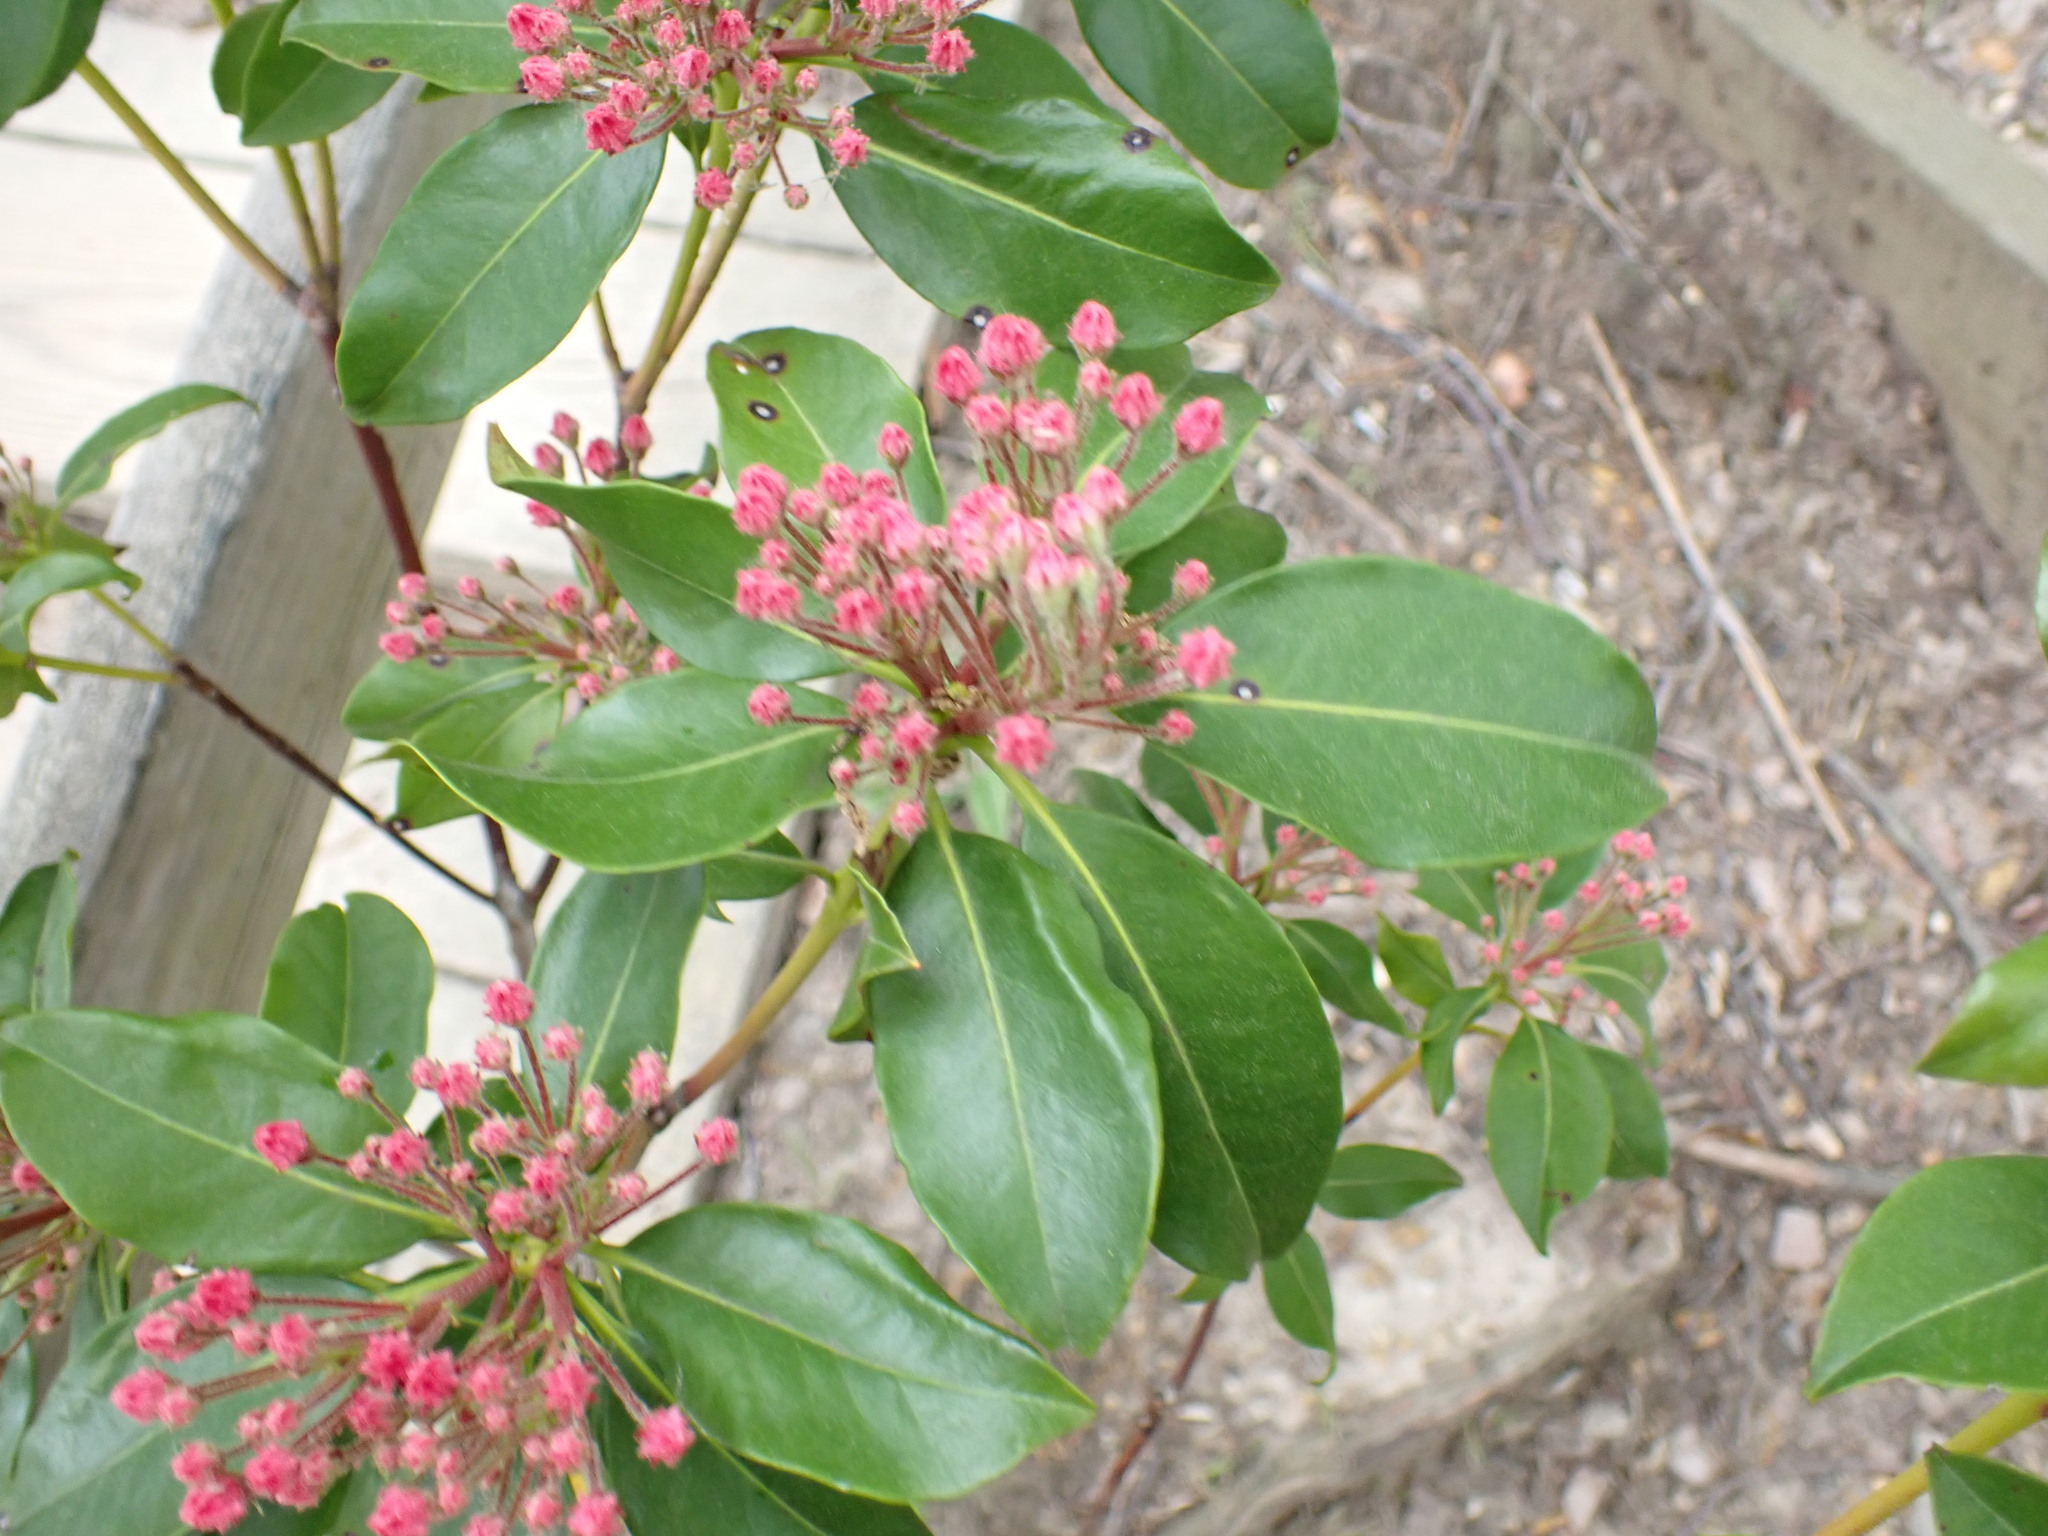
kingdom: Plantae
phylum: Tracheophyta
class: Magnoliopsida
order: Ericales
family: Ericaceae
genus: Kalmia
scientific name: Kalmia latifolia
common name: Mountain-laurel
